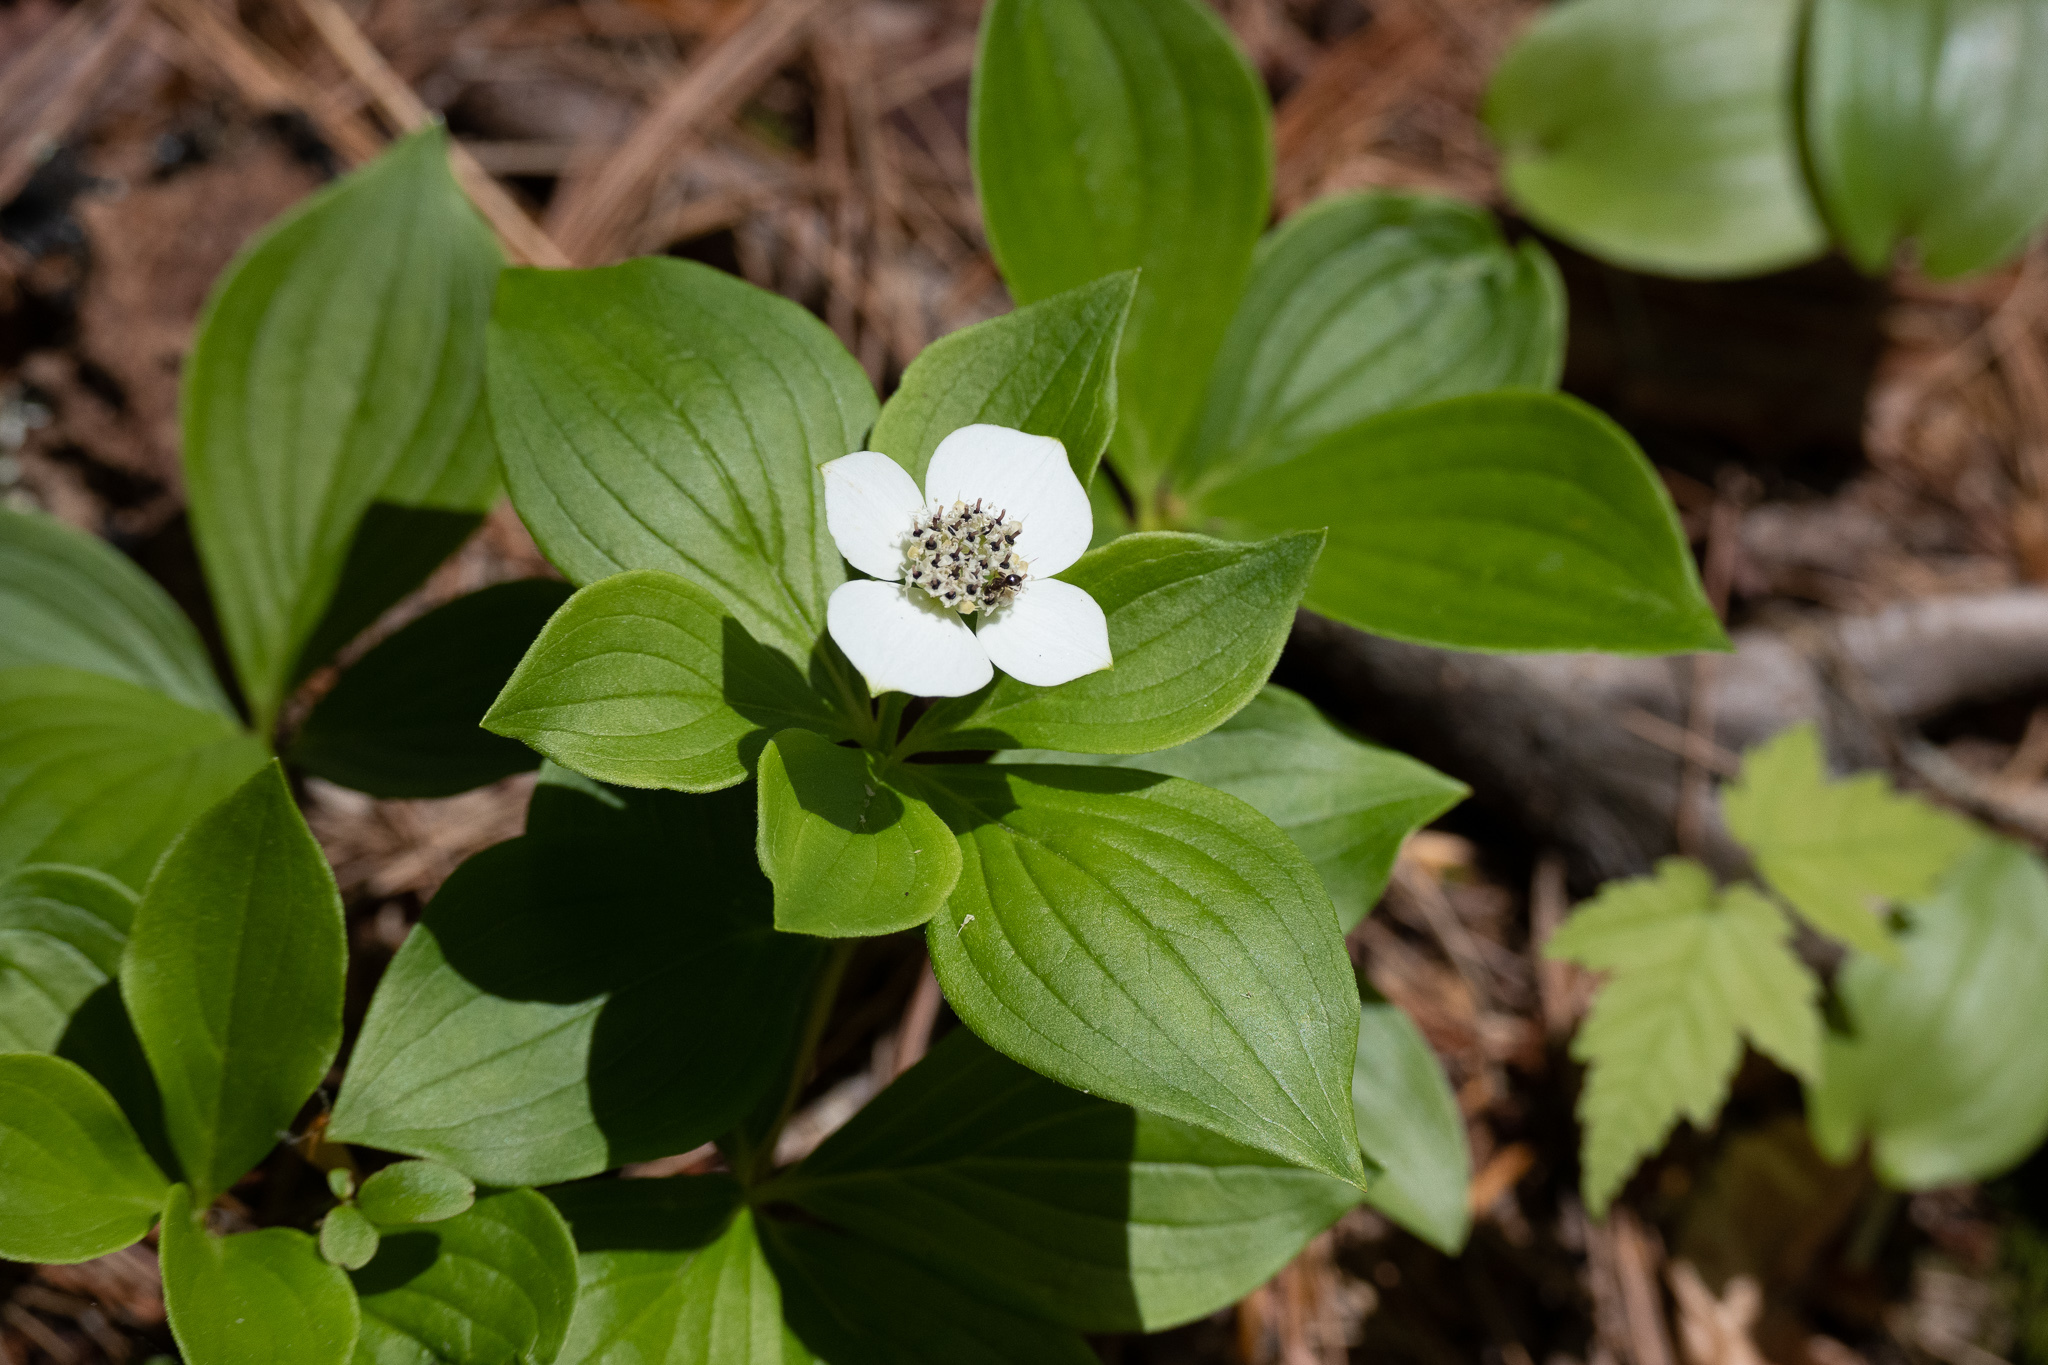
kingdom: Plantae
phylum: Tracheophyta
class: Magnoliopsida
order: Cornales
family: Cornaceae
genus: Cornus
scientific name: Cornus canadensis
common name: Creeping dogwood
